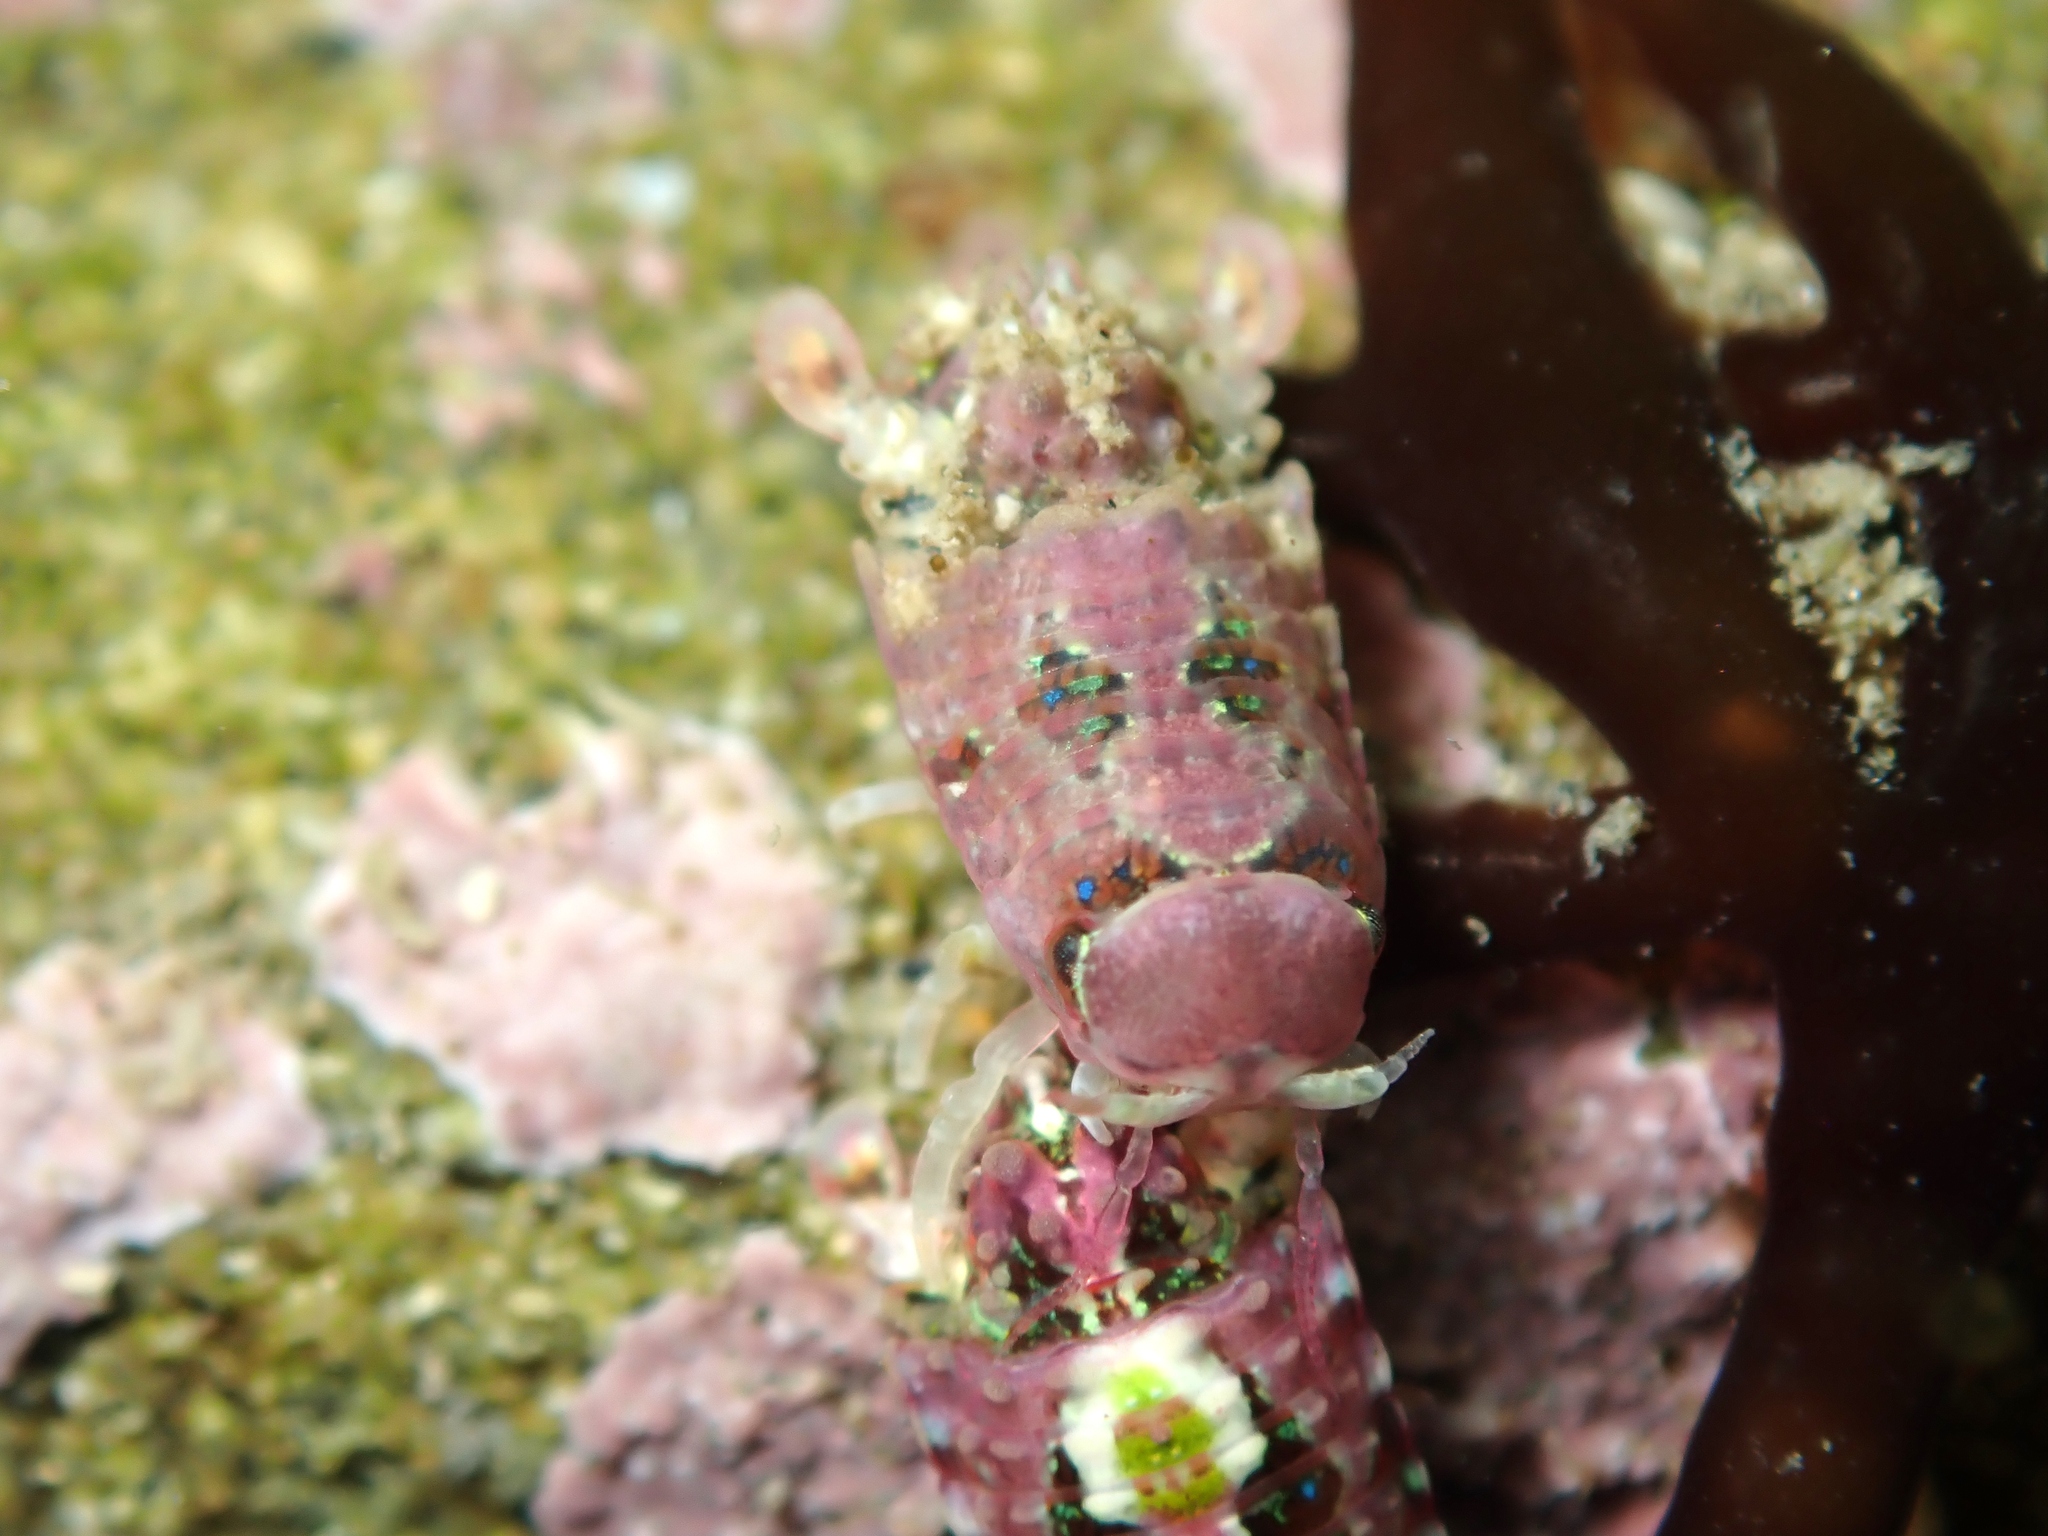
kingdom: Animalia
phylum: Arthropoda
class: Malacostraca
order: Isopoda
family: Sphaeromatidae
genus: Dynamenopsis
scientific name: Dynamenopsis varicolor
